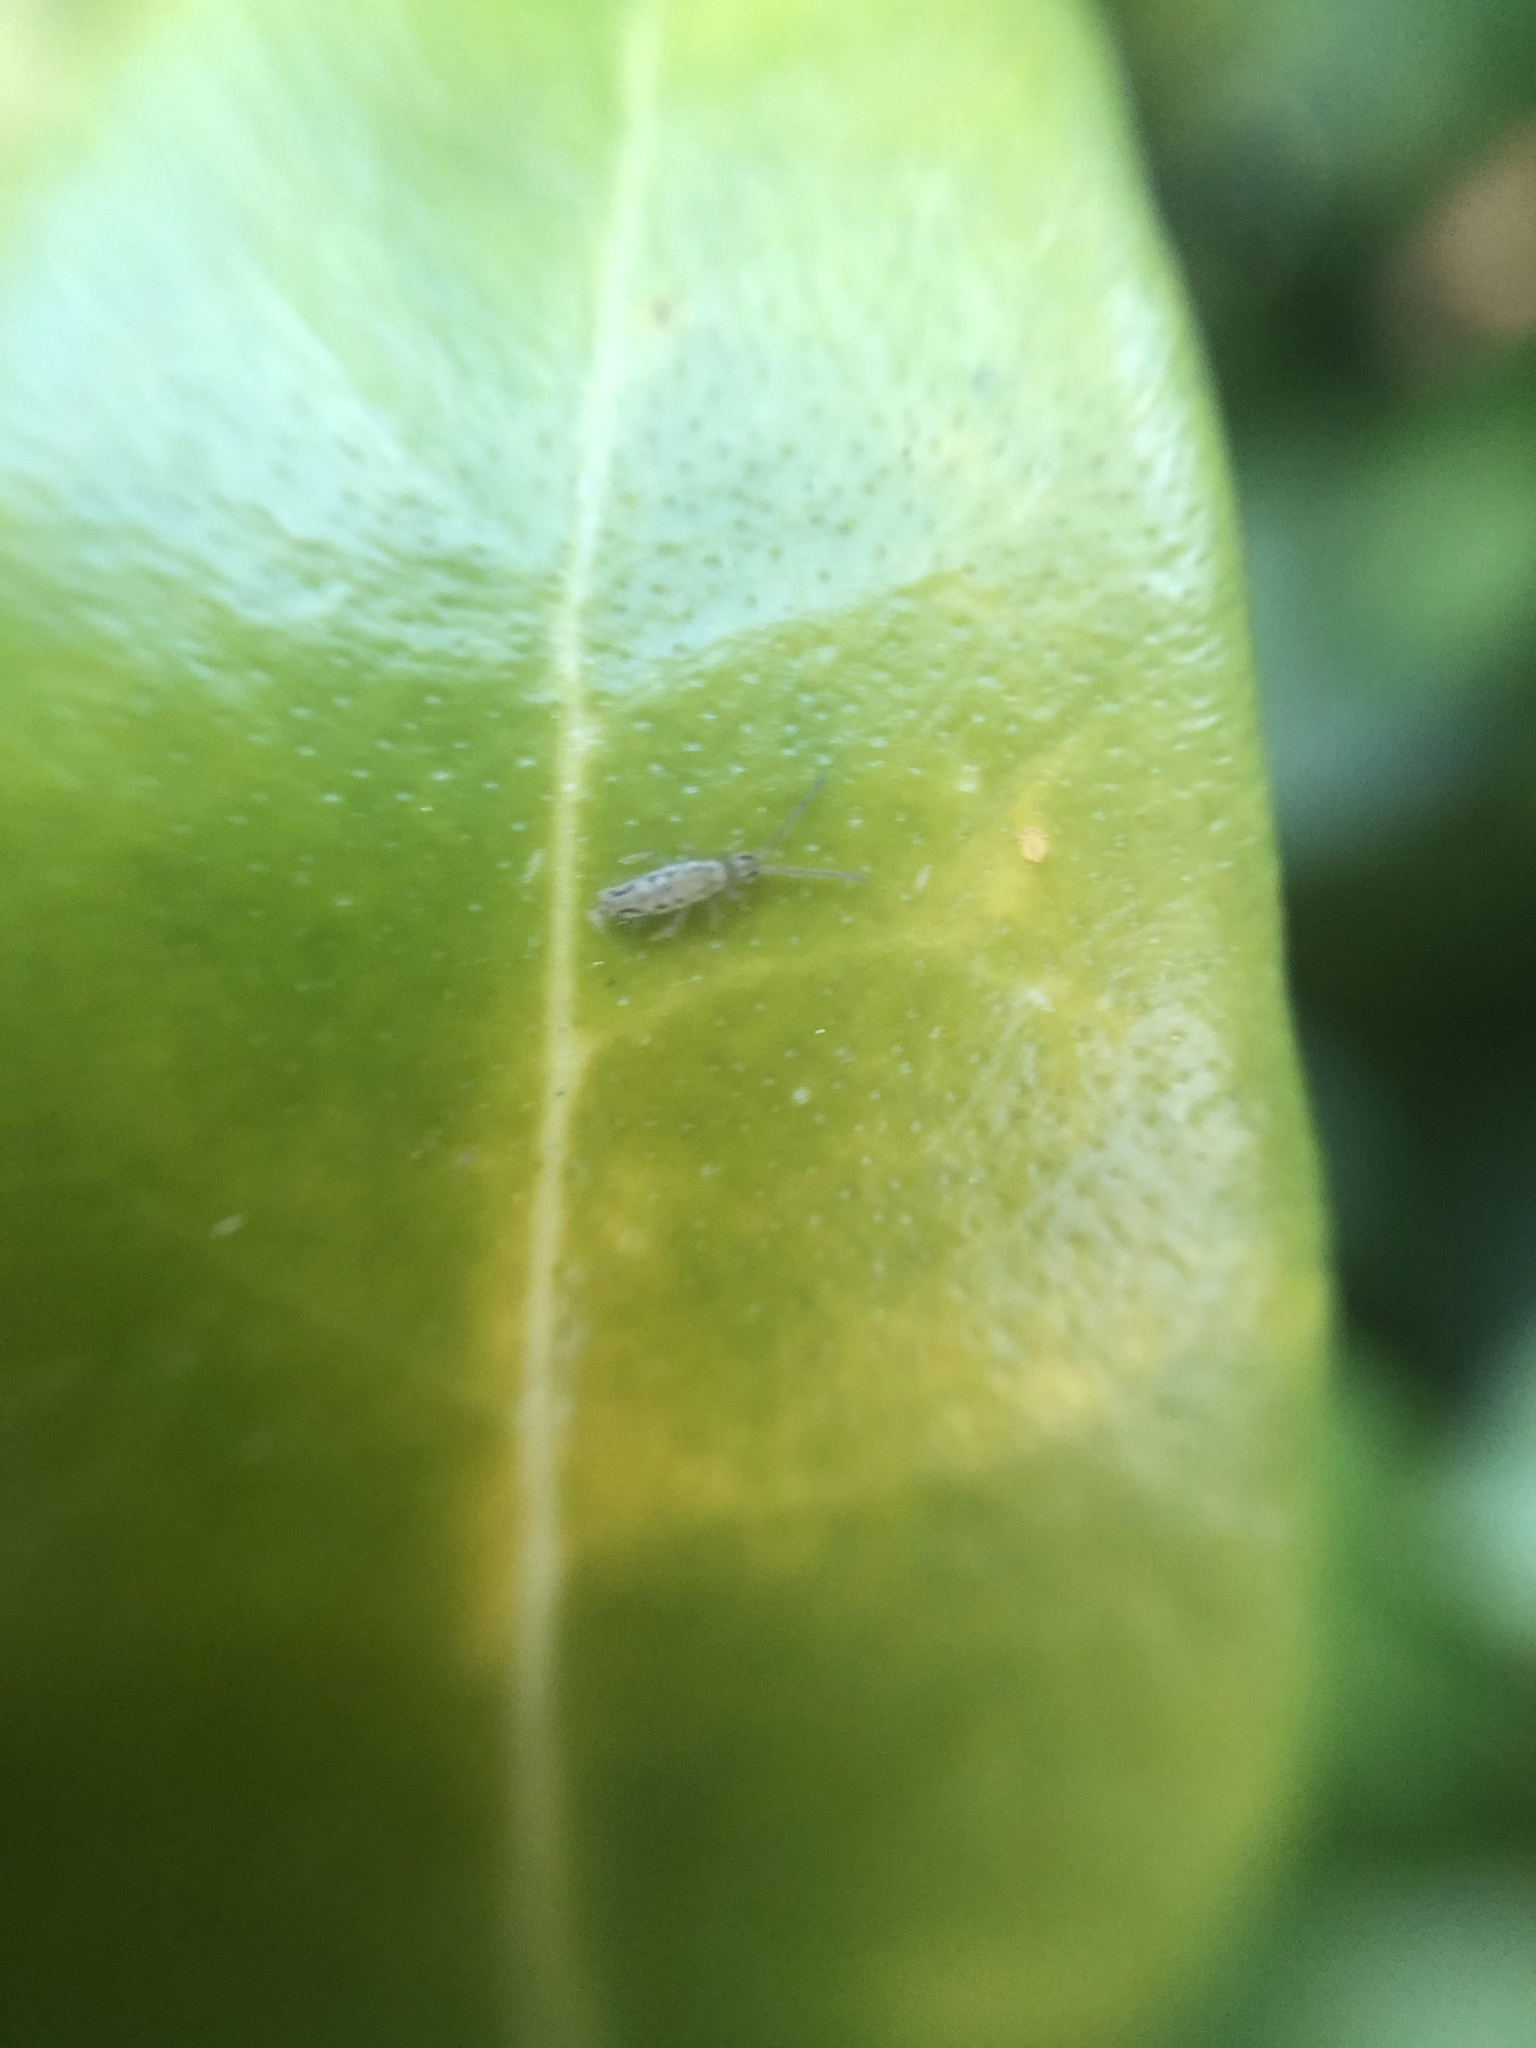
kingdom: Animalia
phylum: Arthropoda
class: Collembola
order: Entomobryomorpha
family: Entomobryidae
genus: Entomobrya
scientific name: Entomobrya intermedia
